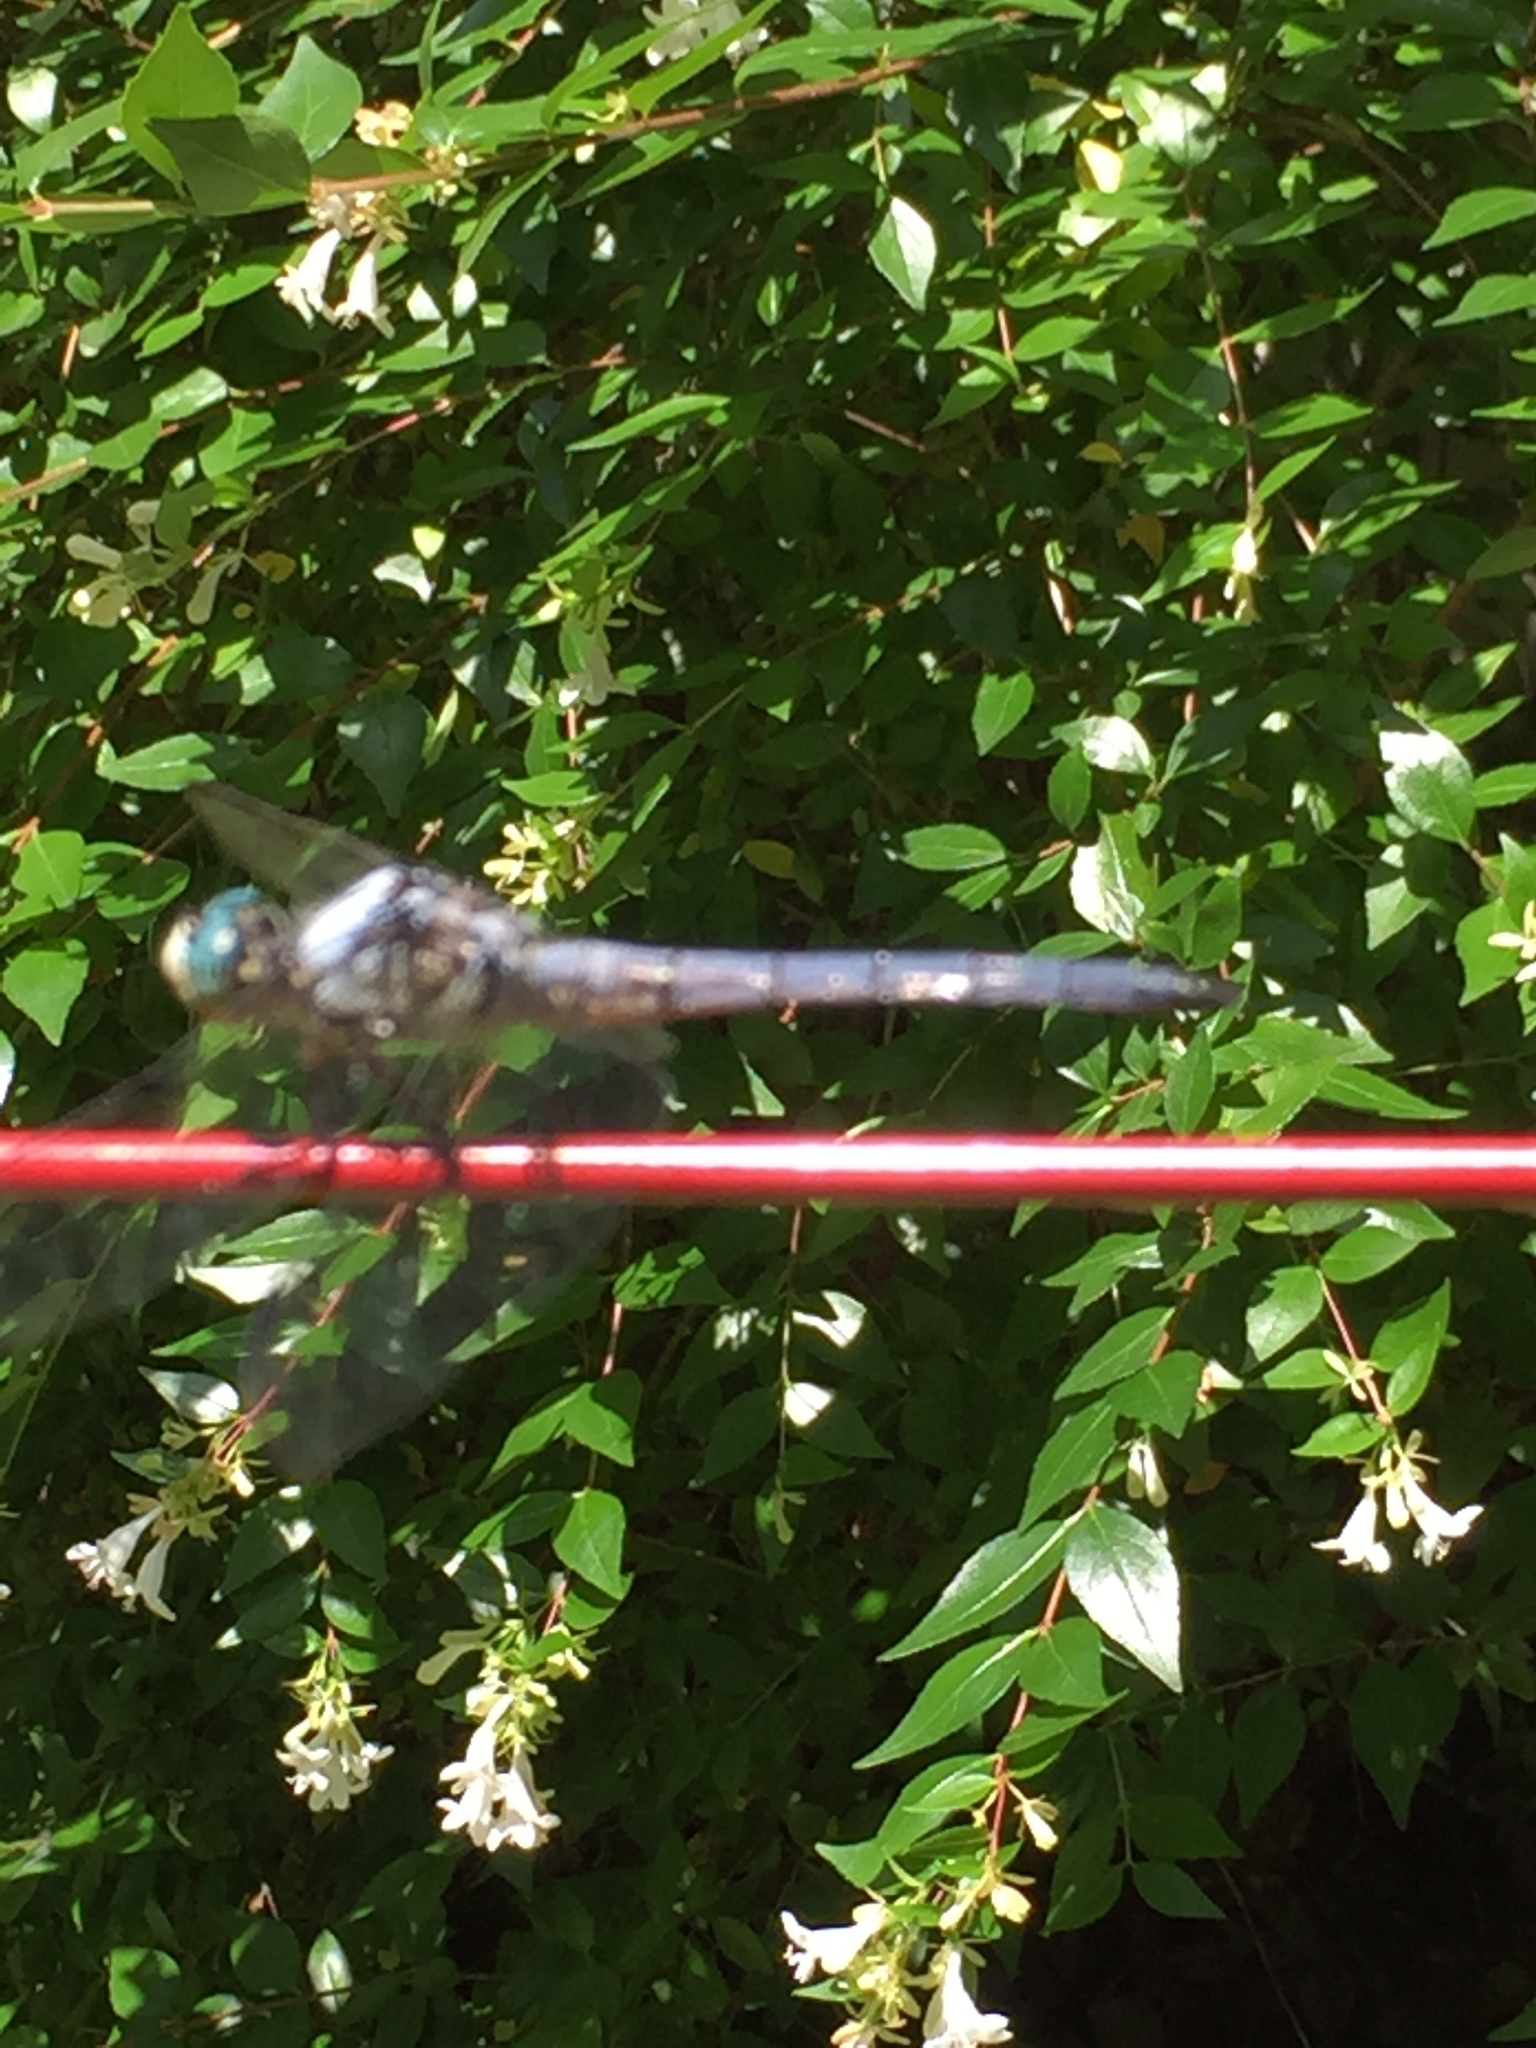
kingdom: Animalia
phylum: Arthropoda
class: Insecta
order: Odonata
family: Libellulidae
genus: Libellula
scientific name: Libellula vibrans
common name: Great blue skimmer
